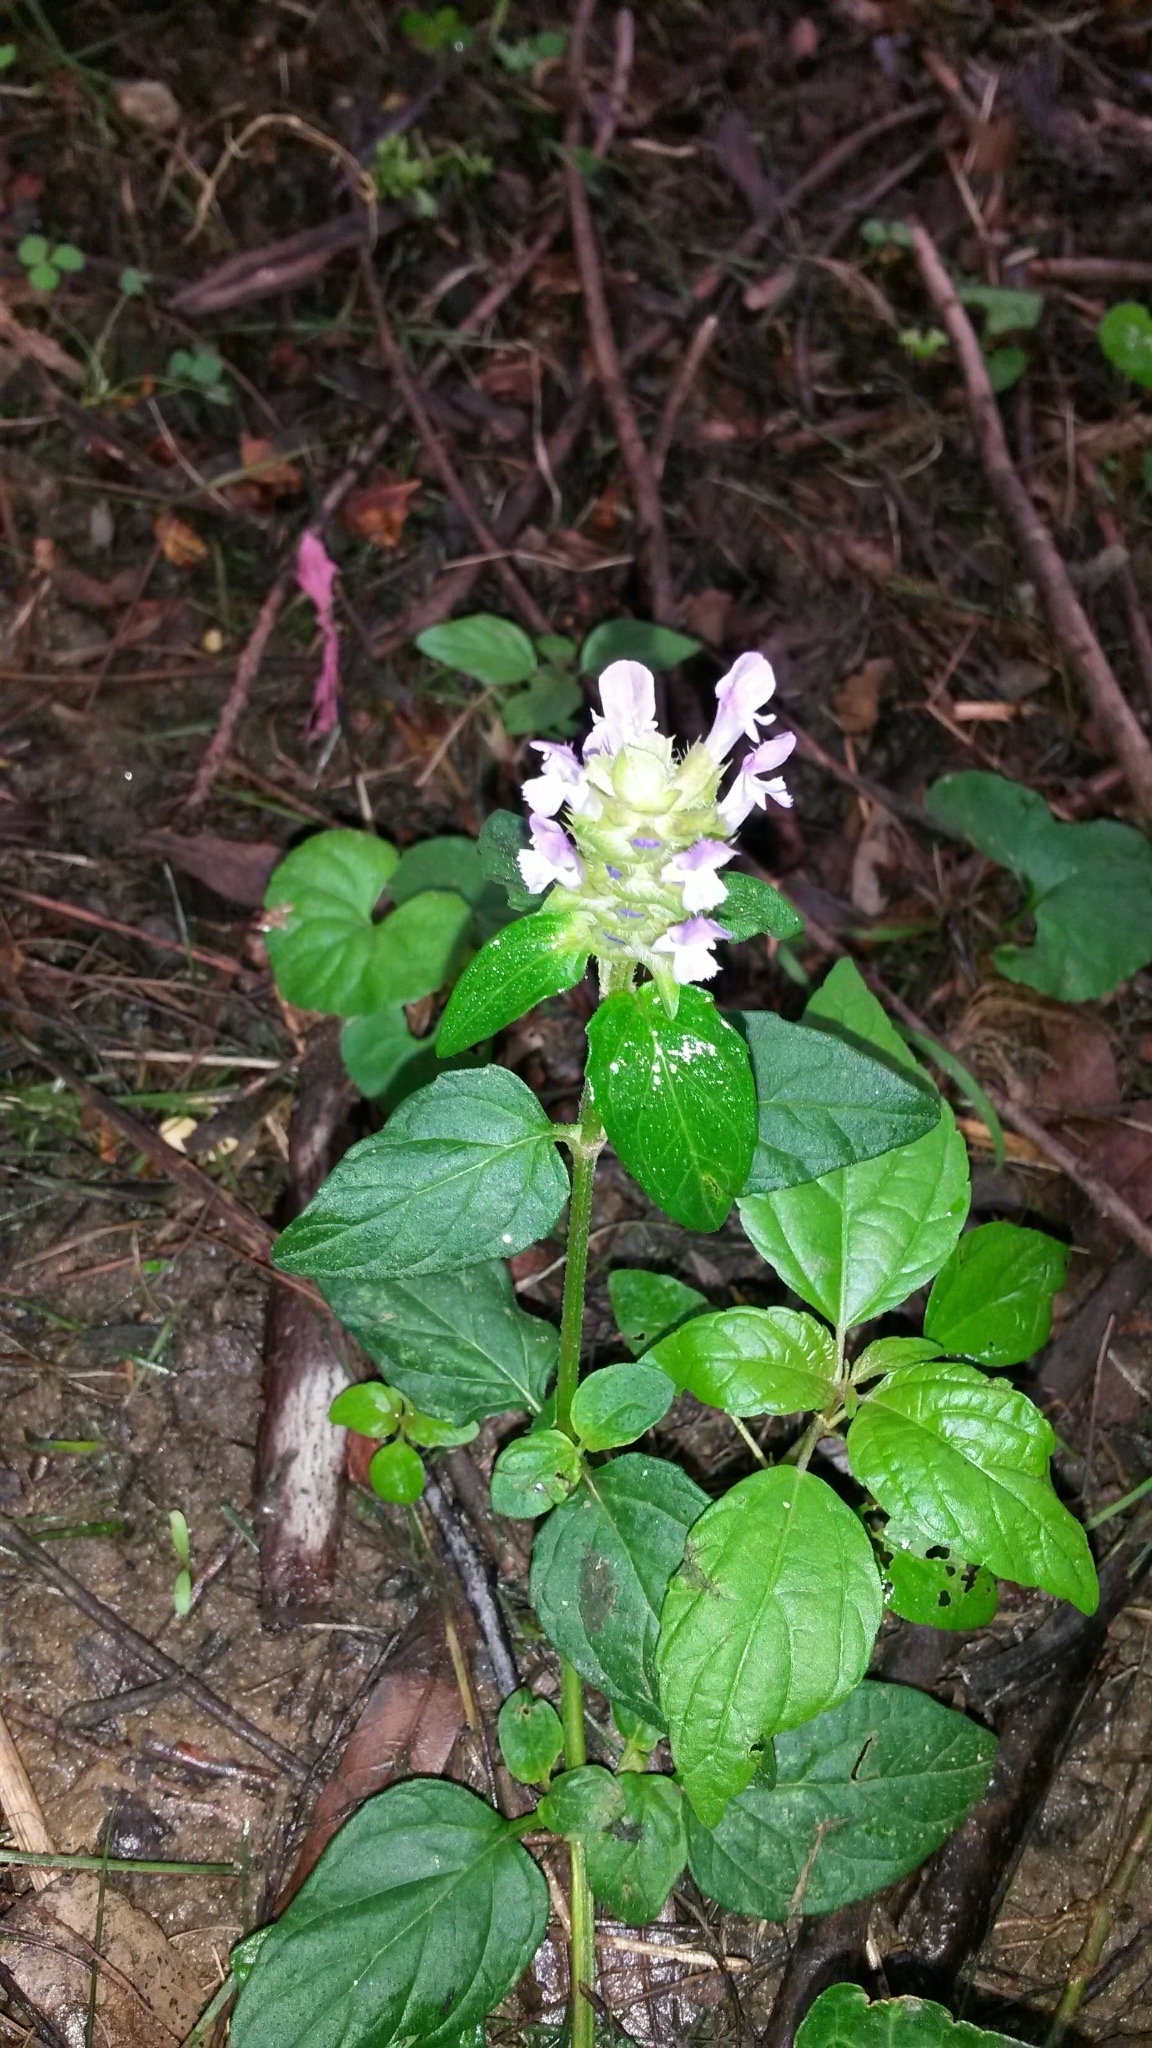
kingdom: Plantae
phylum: Tracheophyta
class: Magnoliopsida
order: Lamiales
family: Lamiaceae
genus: Prunella
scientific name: Prunella vulgaris
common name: Heal-all
